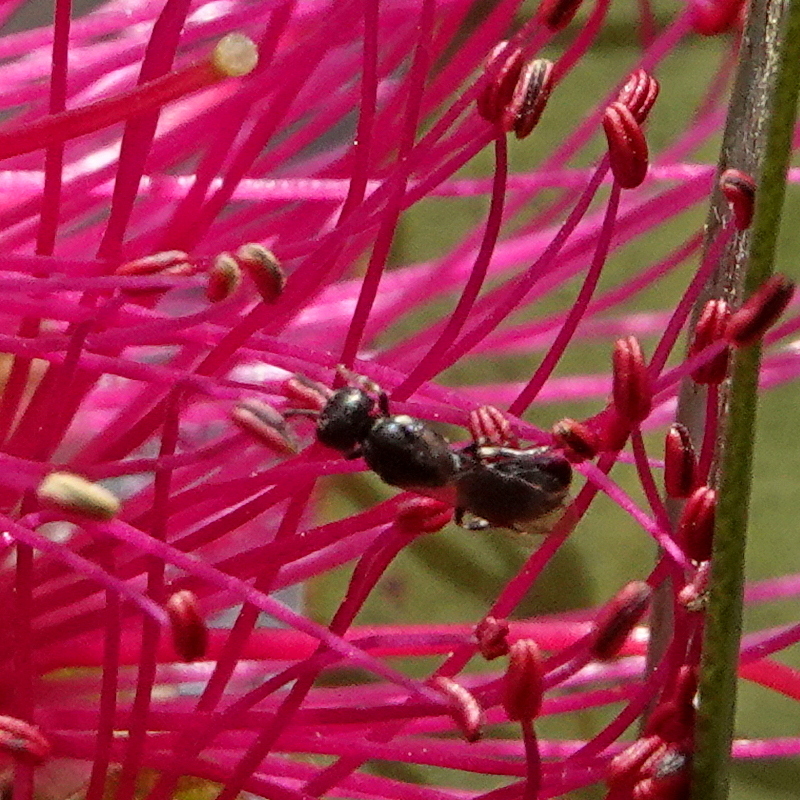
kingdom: Animalia
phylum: Arthropoda
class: Insecta
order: Hymenoptera
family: Colletidae
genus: Hylaeus
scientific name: Hylaeus aralis
